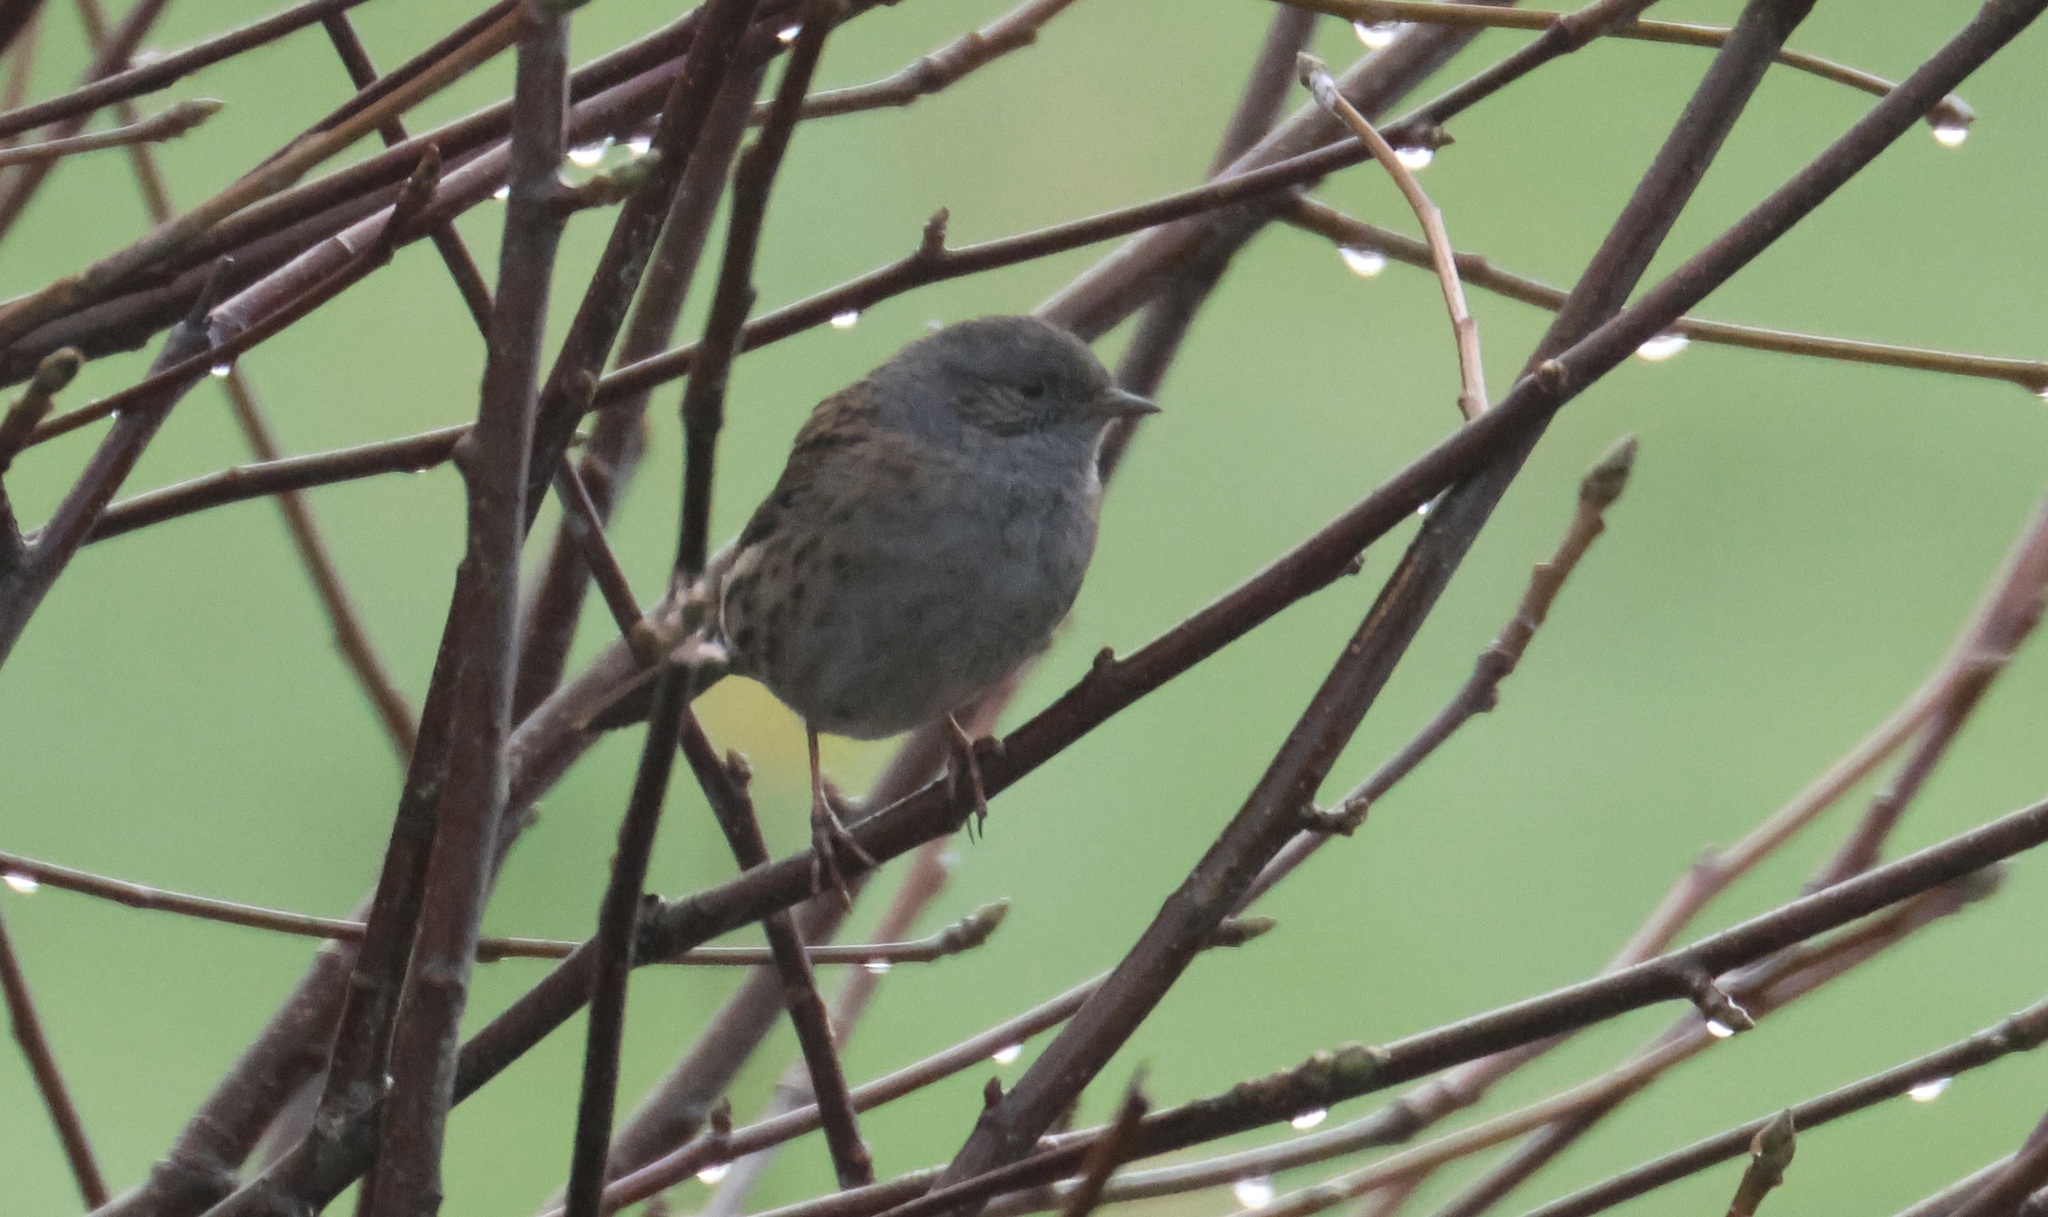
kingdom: Animalia
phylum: Chordata
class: Aves
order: Passeriformes
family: Prunellidae
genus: Prunella
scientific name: Prunella modularis
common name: Dunnock
